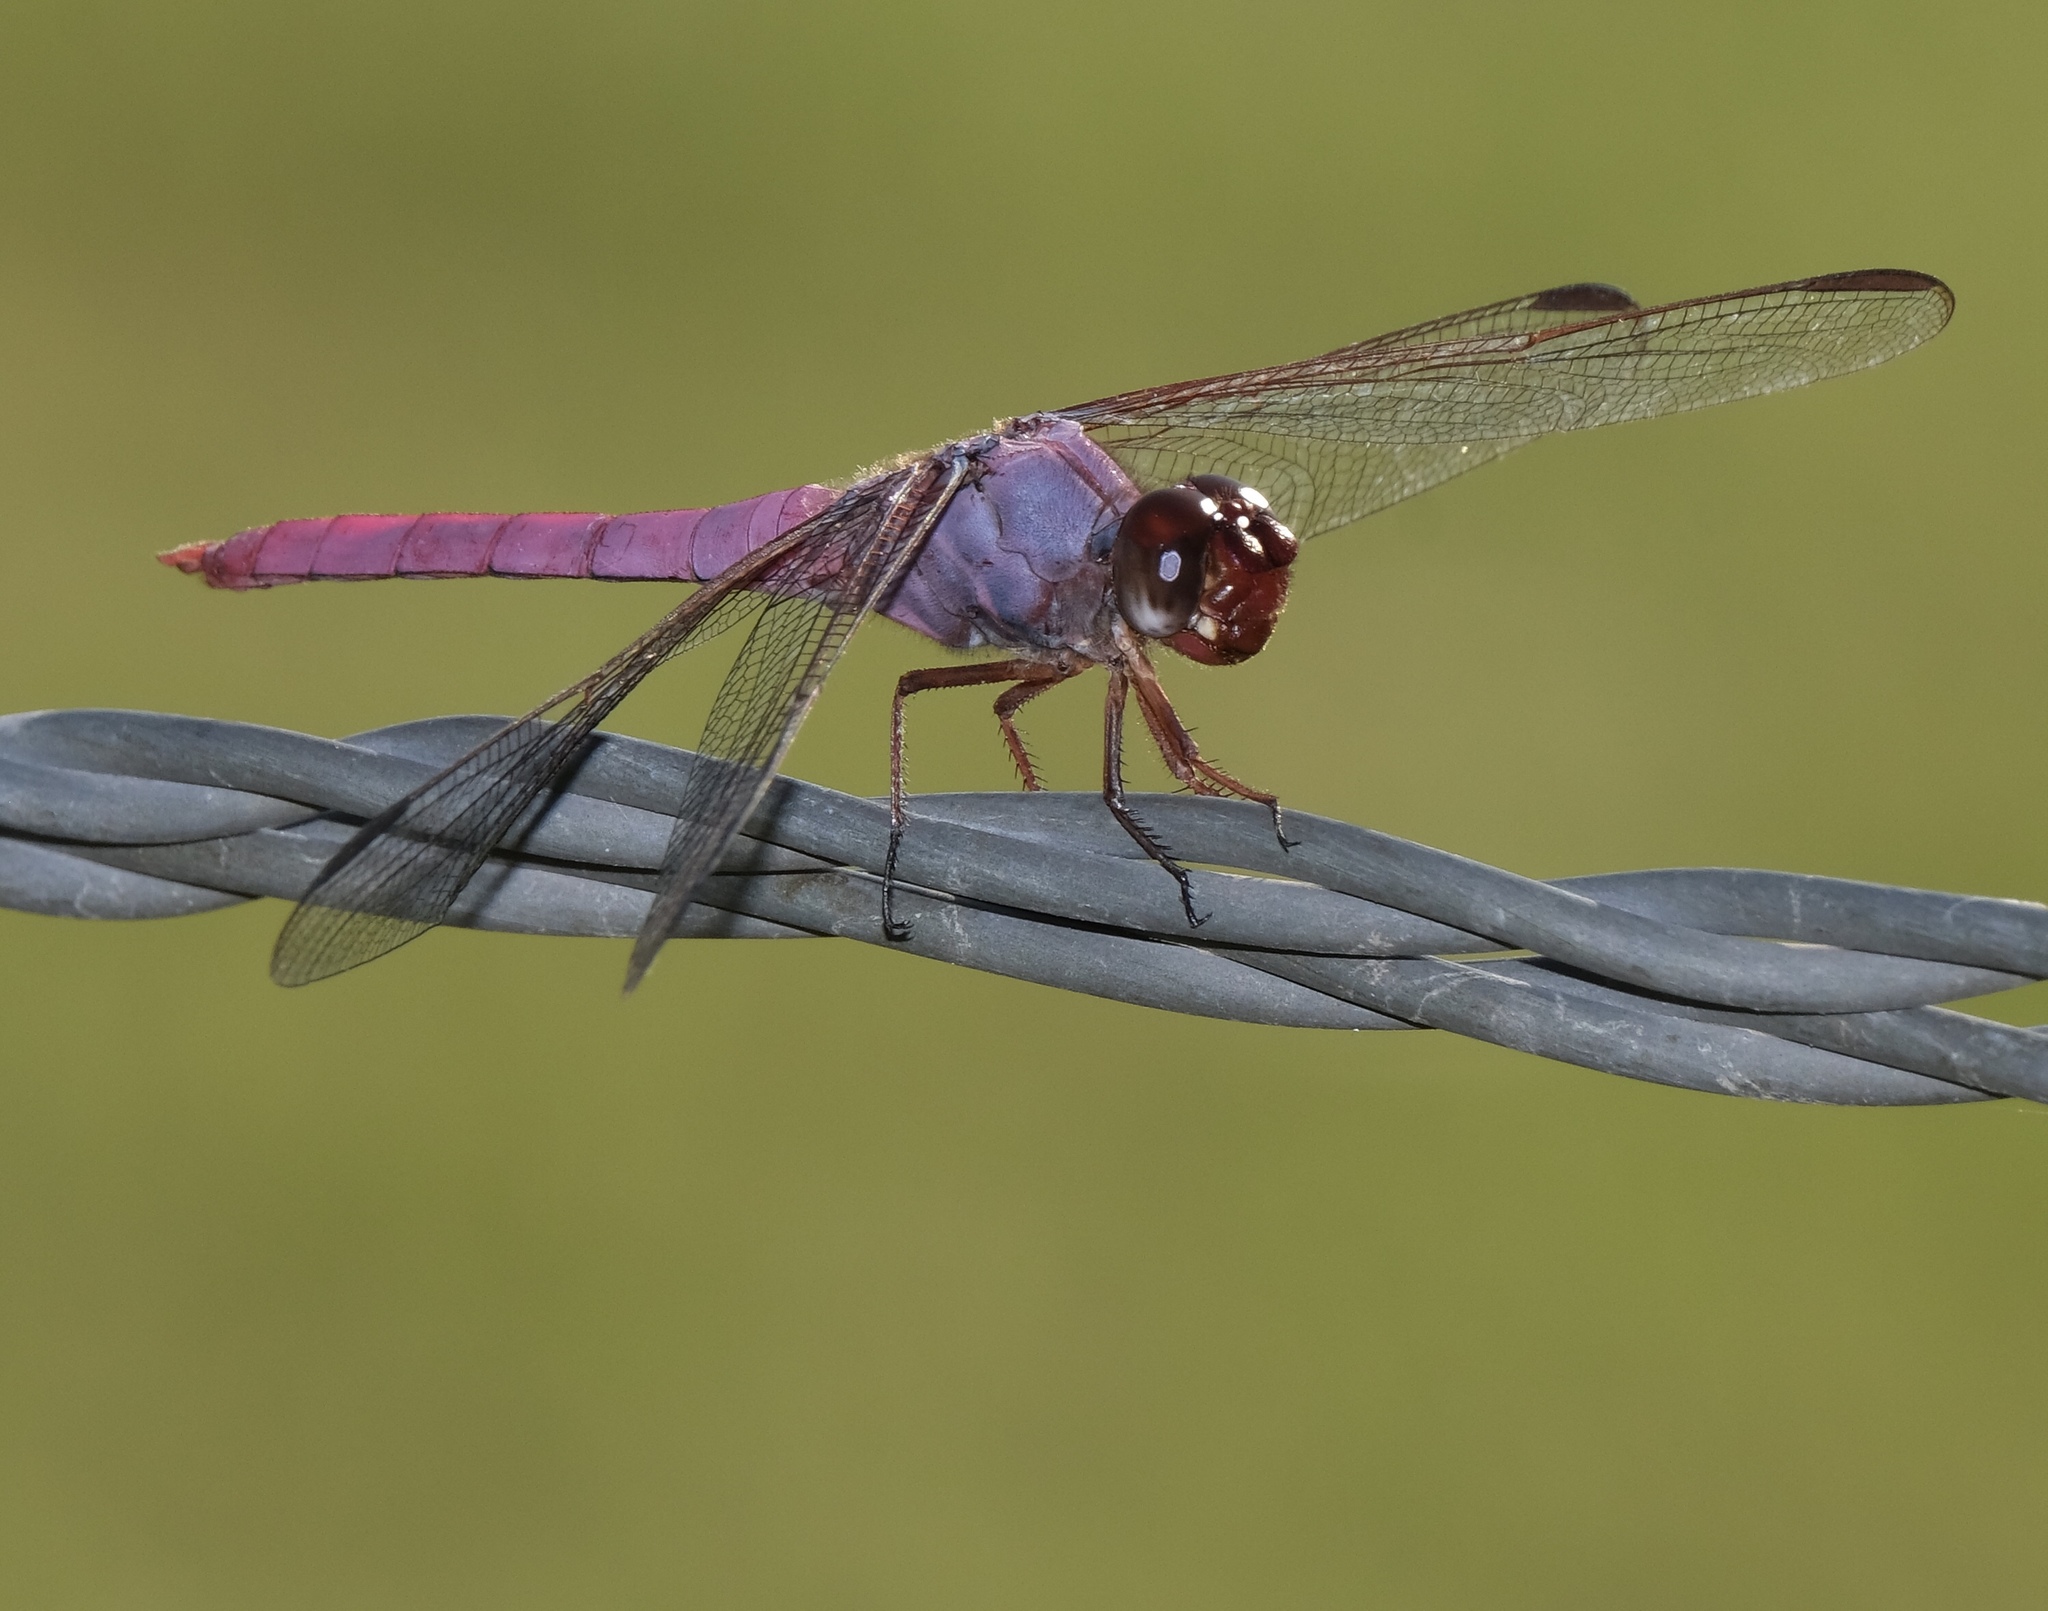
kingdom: Animalia
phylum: Arthropoda
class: Insecta
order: Odonata
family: Libellulidae
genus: Orthemis
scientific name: Orthemis ferruginea
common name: Roseate skimmer
